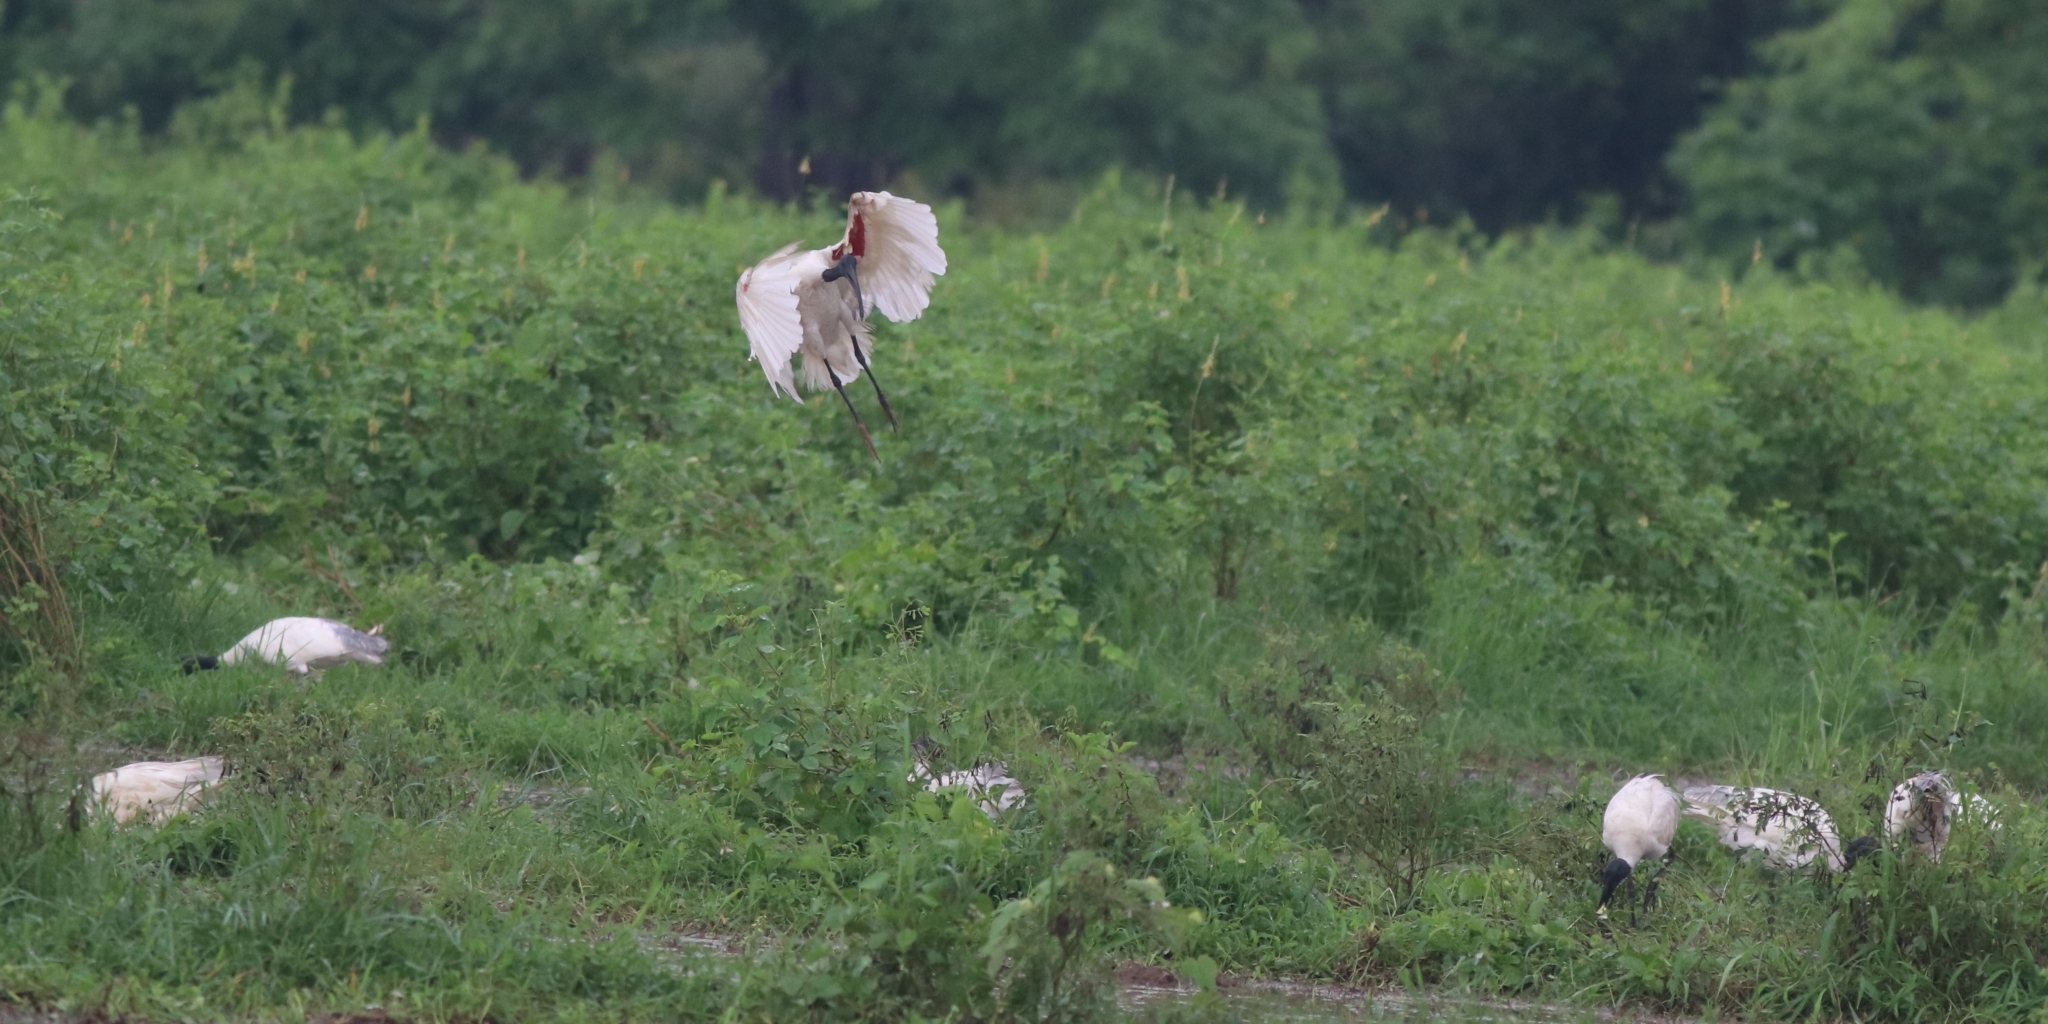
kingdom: Animalia
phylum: Chordata
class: Aves
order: Pelecaniformes
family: Threskiornithidae
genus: Threskiornis
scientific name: Threskiornis melanocephalus
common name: Black-headed ibis
